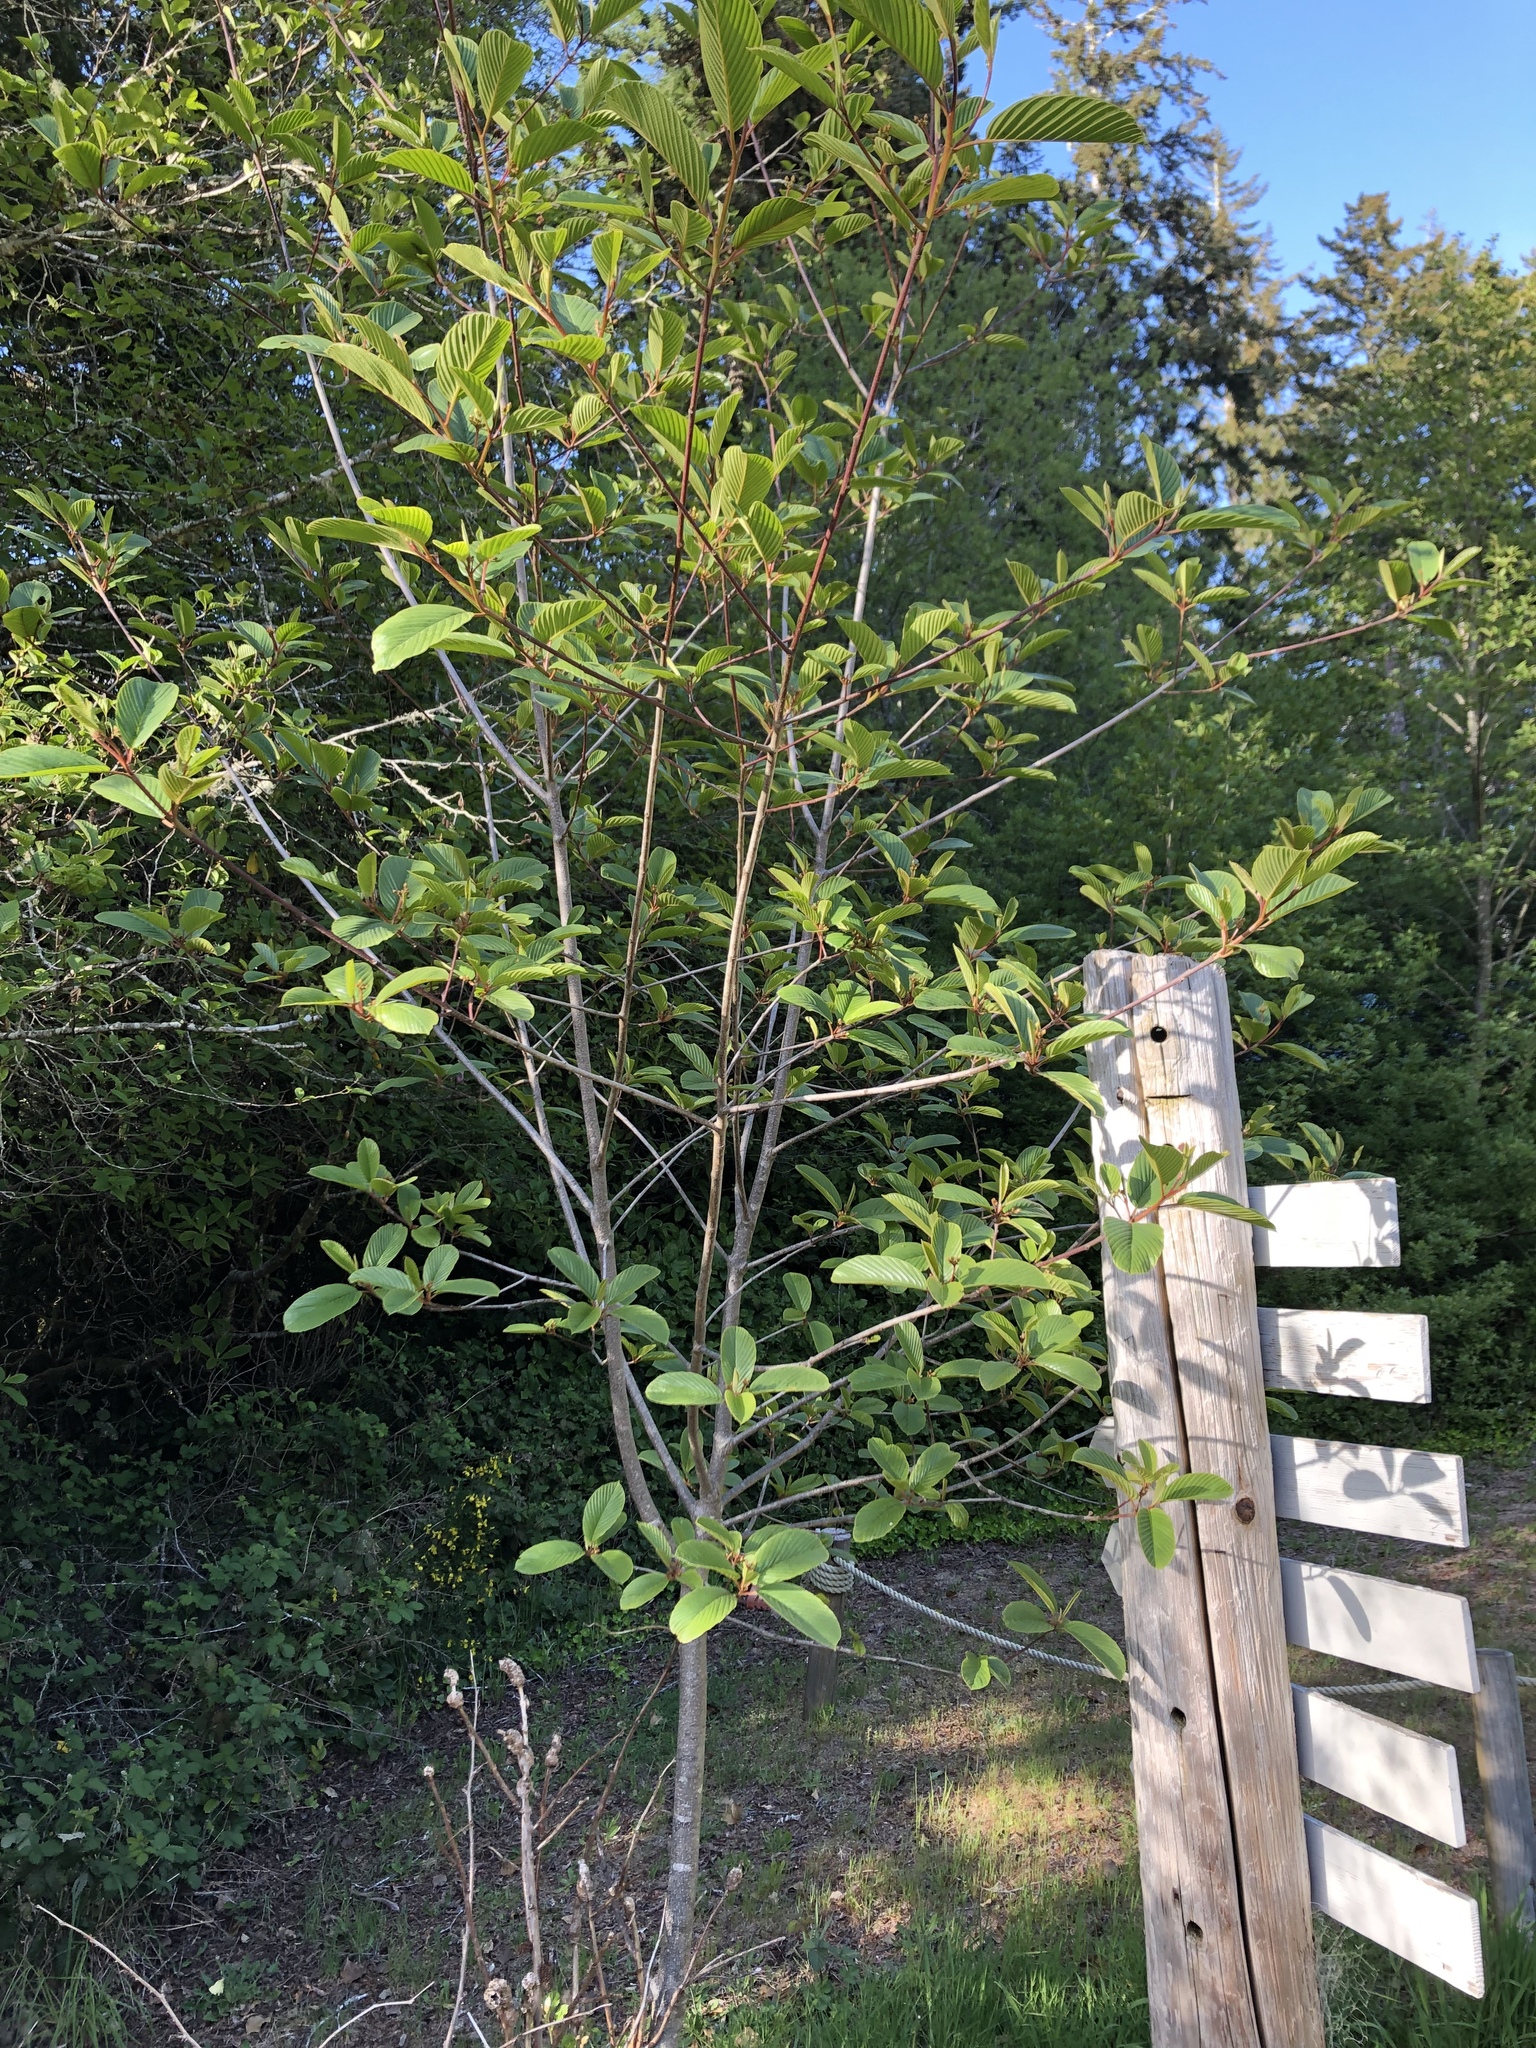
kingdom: Plantae
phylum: Tracheophyta
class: Magnoliopsida
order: Rosales
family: Rhamnaceae
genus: Frangula
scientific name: Frangula purshiana
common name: Cascara buckthorn
